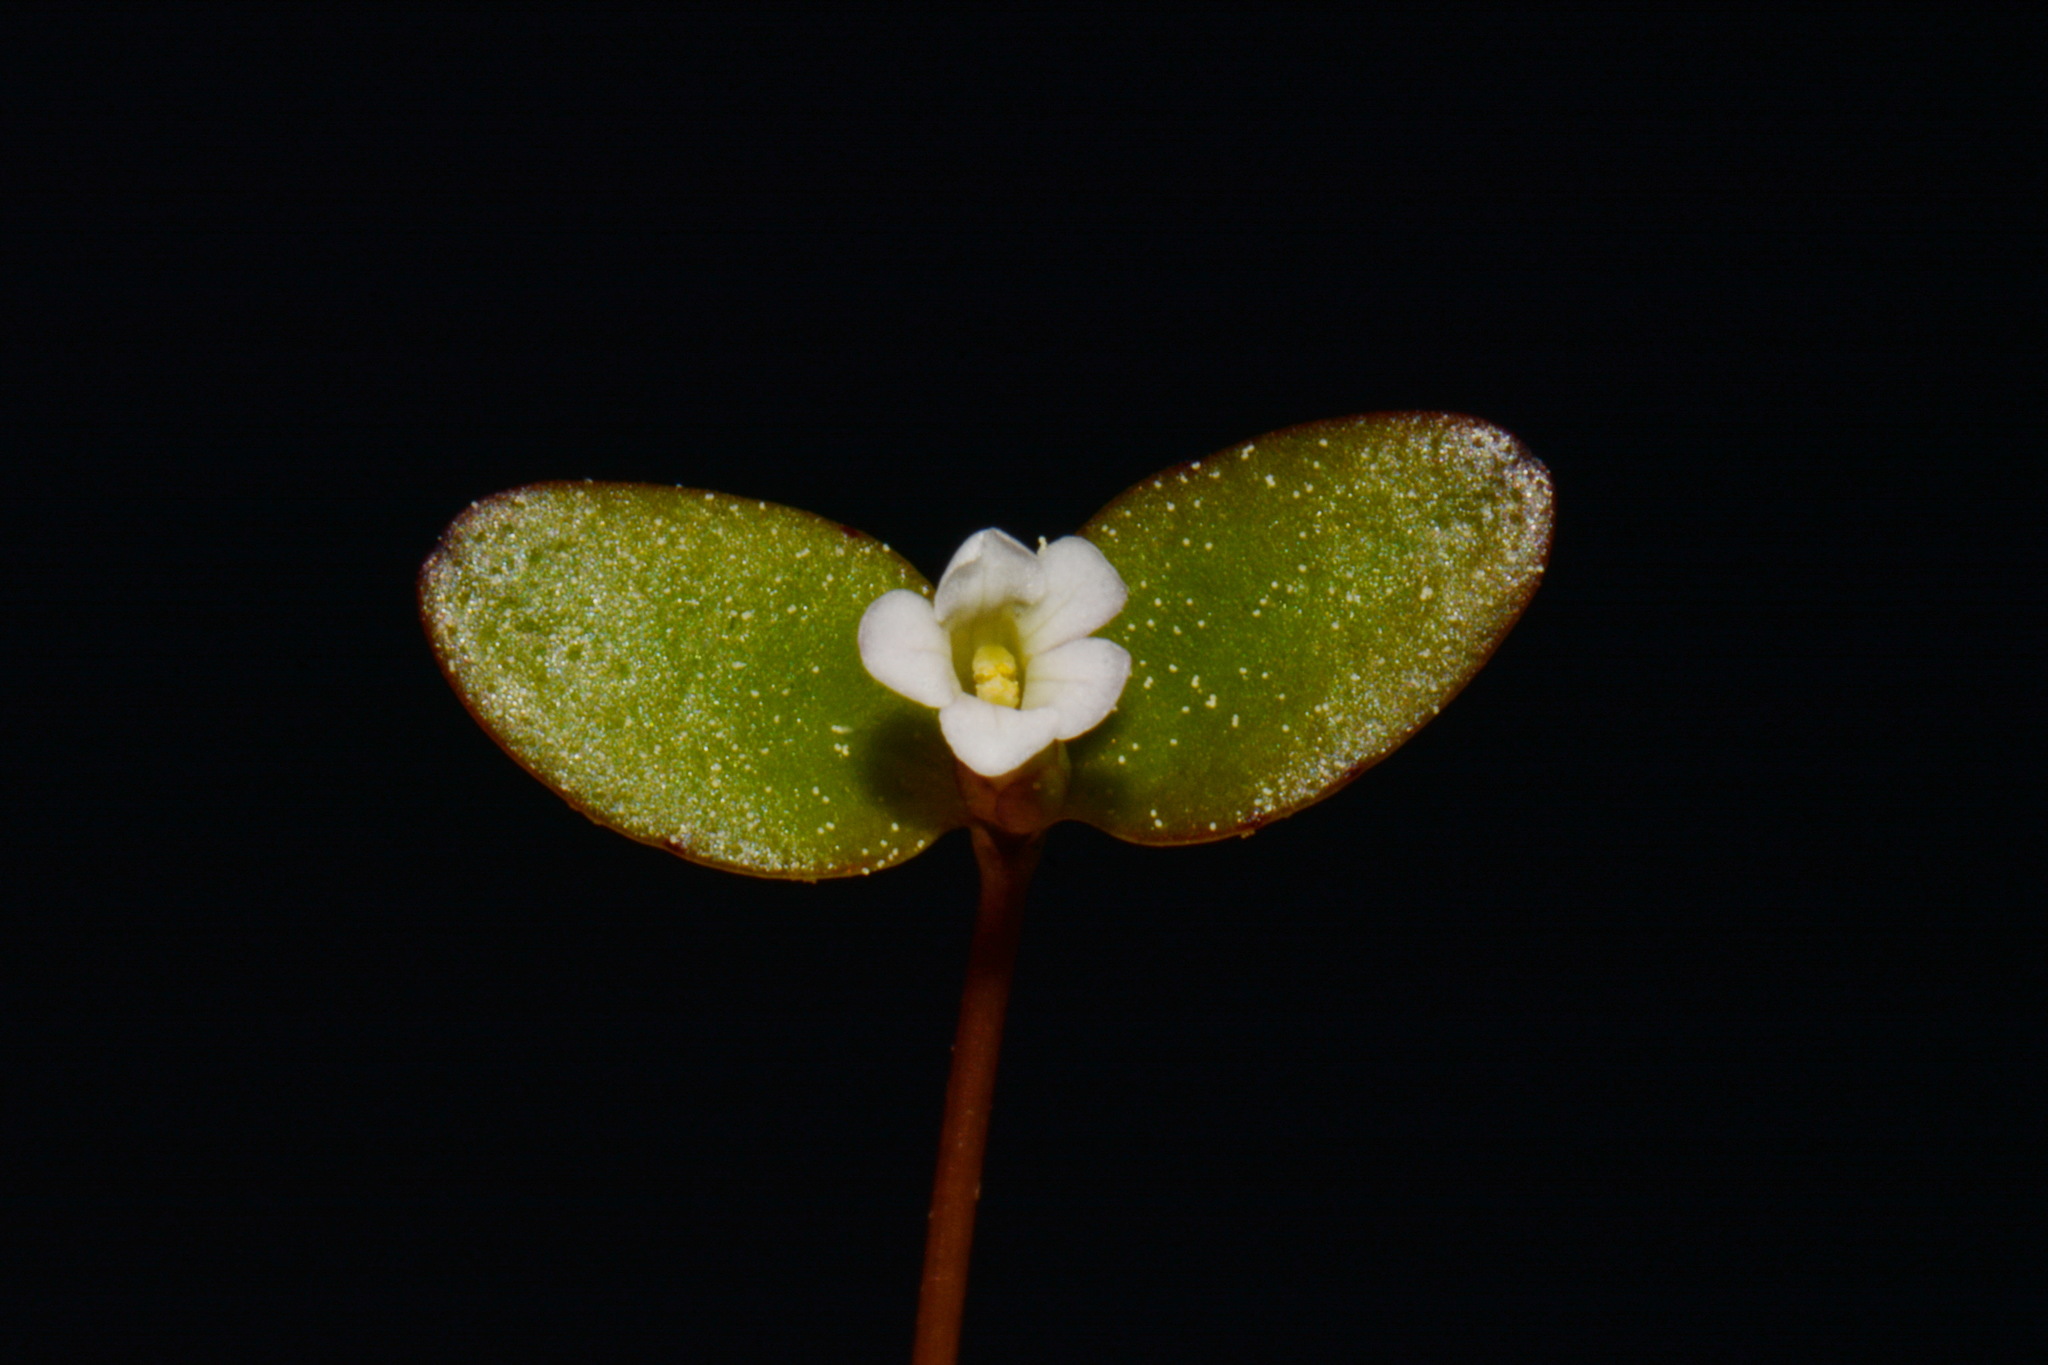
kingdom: Plantae
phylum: Tracheophyta
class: Magnoliopsida
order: Lamiales
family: Plantaginaceae
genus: Gratiola
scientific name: Gratiola amphiantha
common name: Little amphianthus
